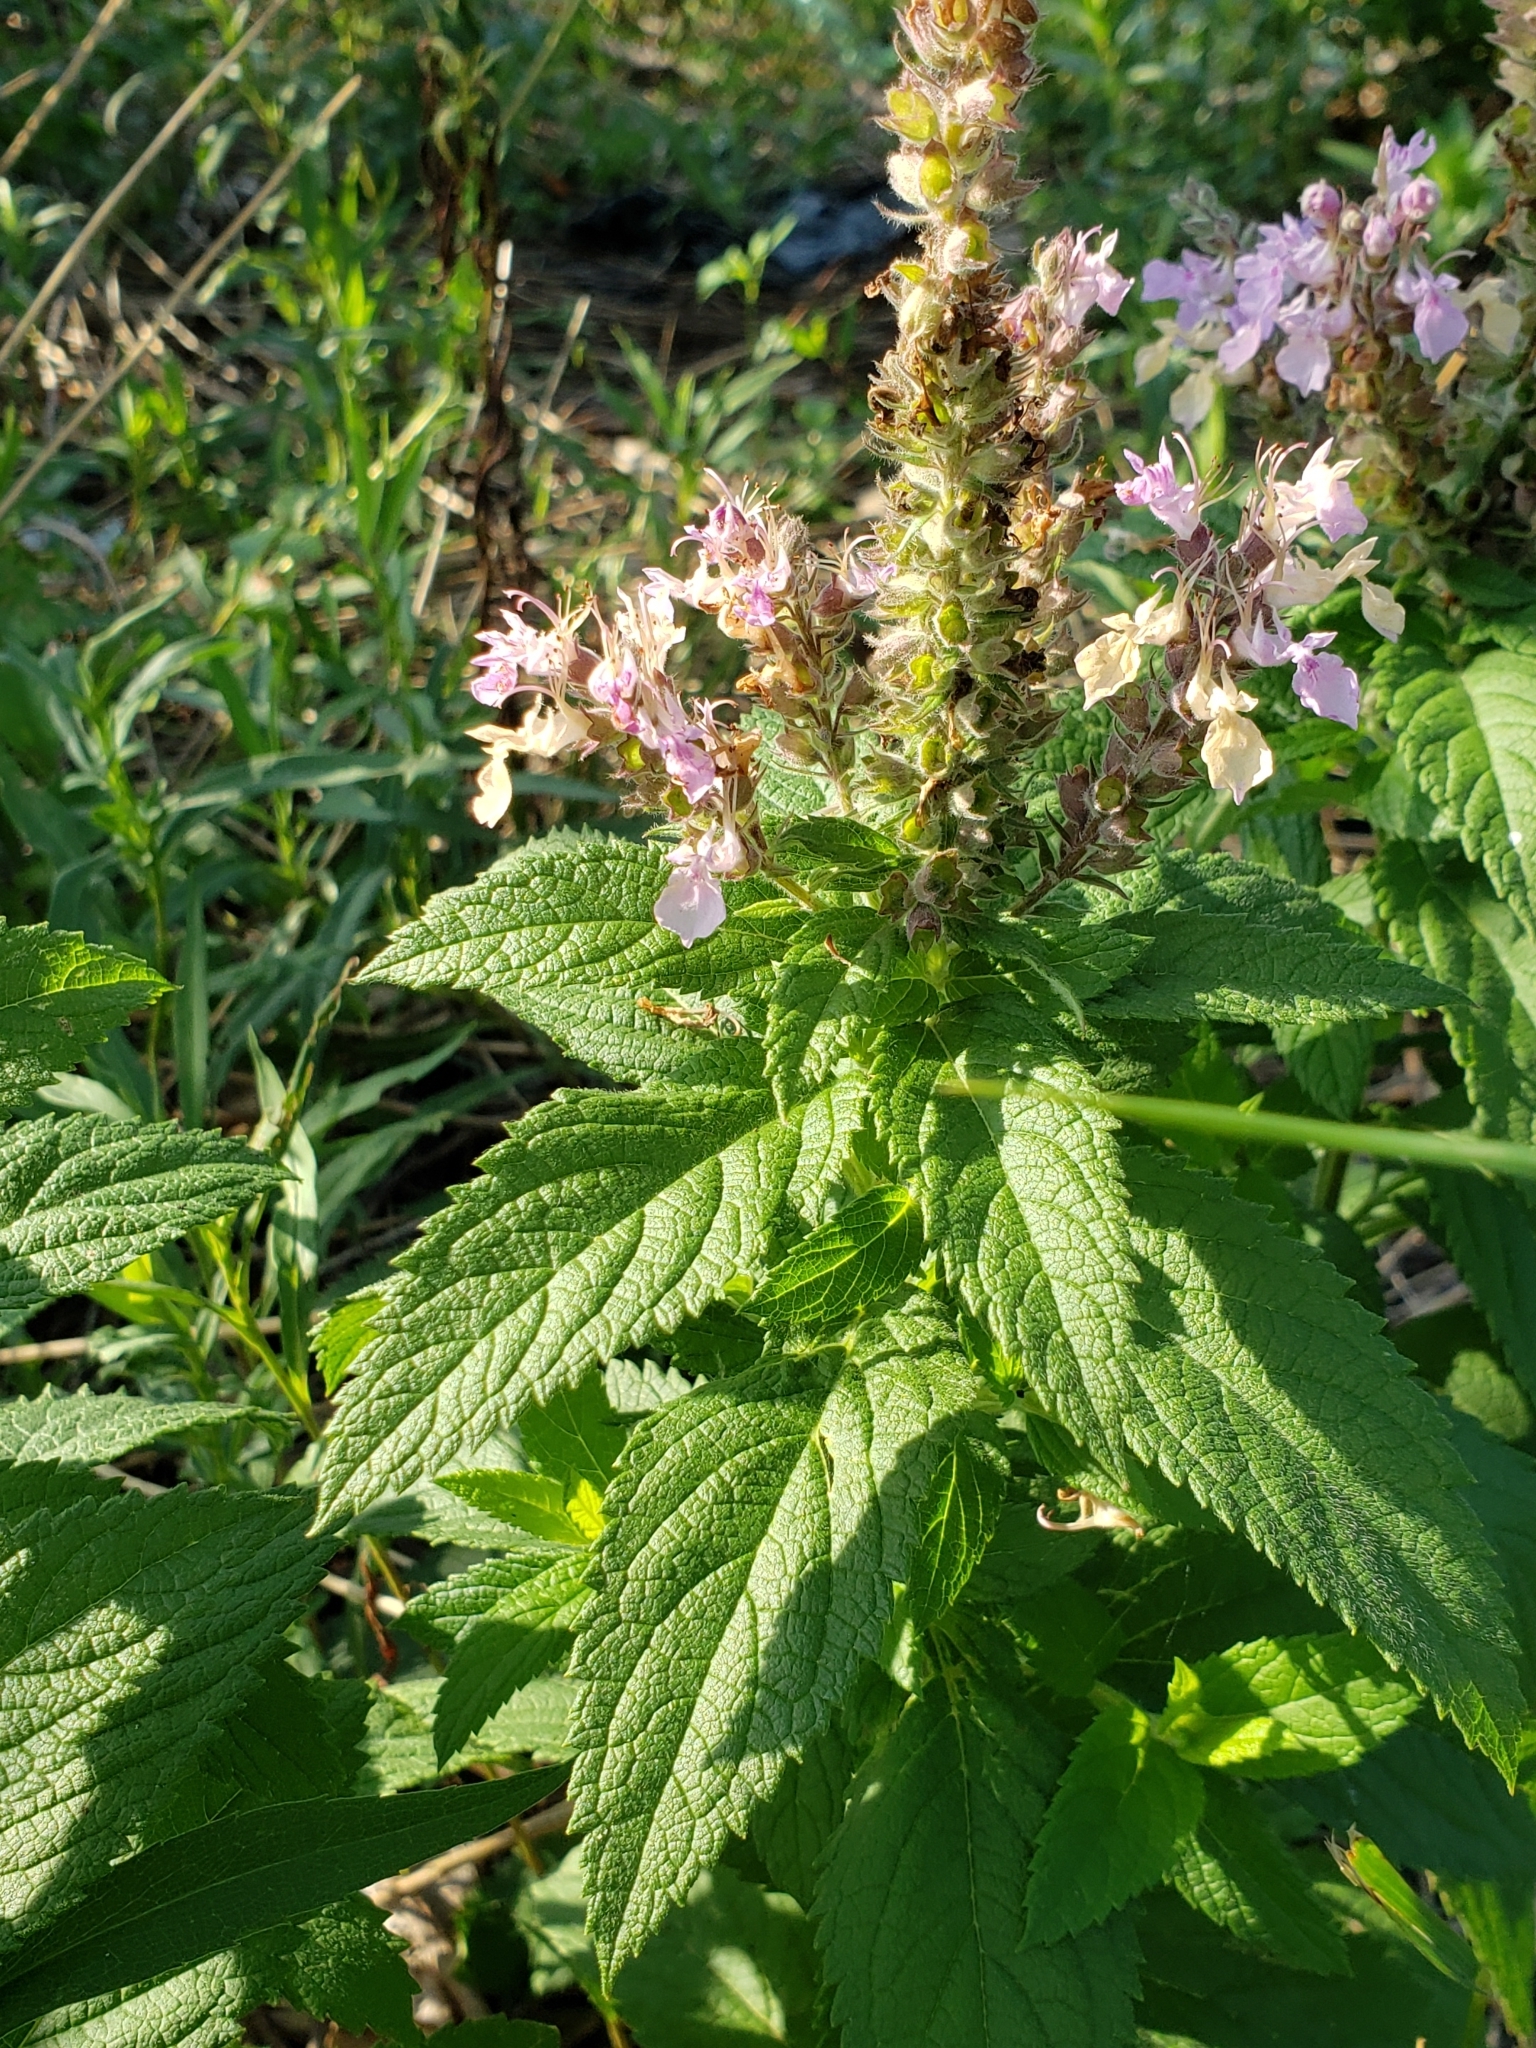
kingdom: Plantae
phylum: Tracheophyta
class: Magnoliopsida
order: Lamiales
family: Lamiaceae
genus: Teucrium
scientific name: Teucrium canadense
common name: American germander
